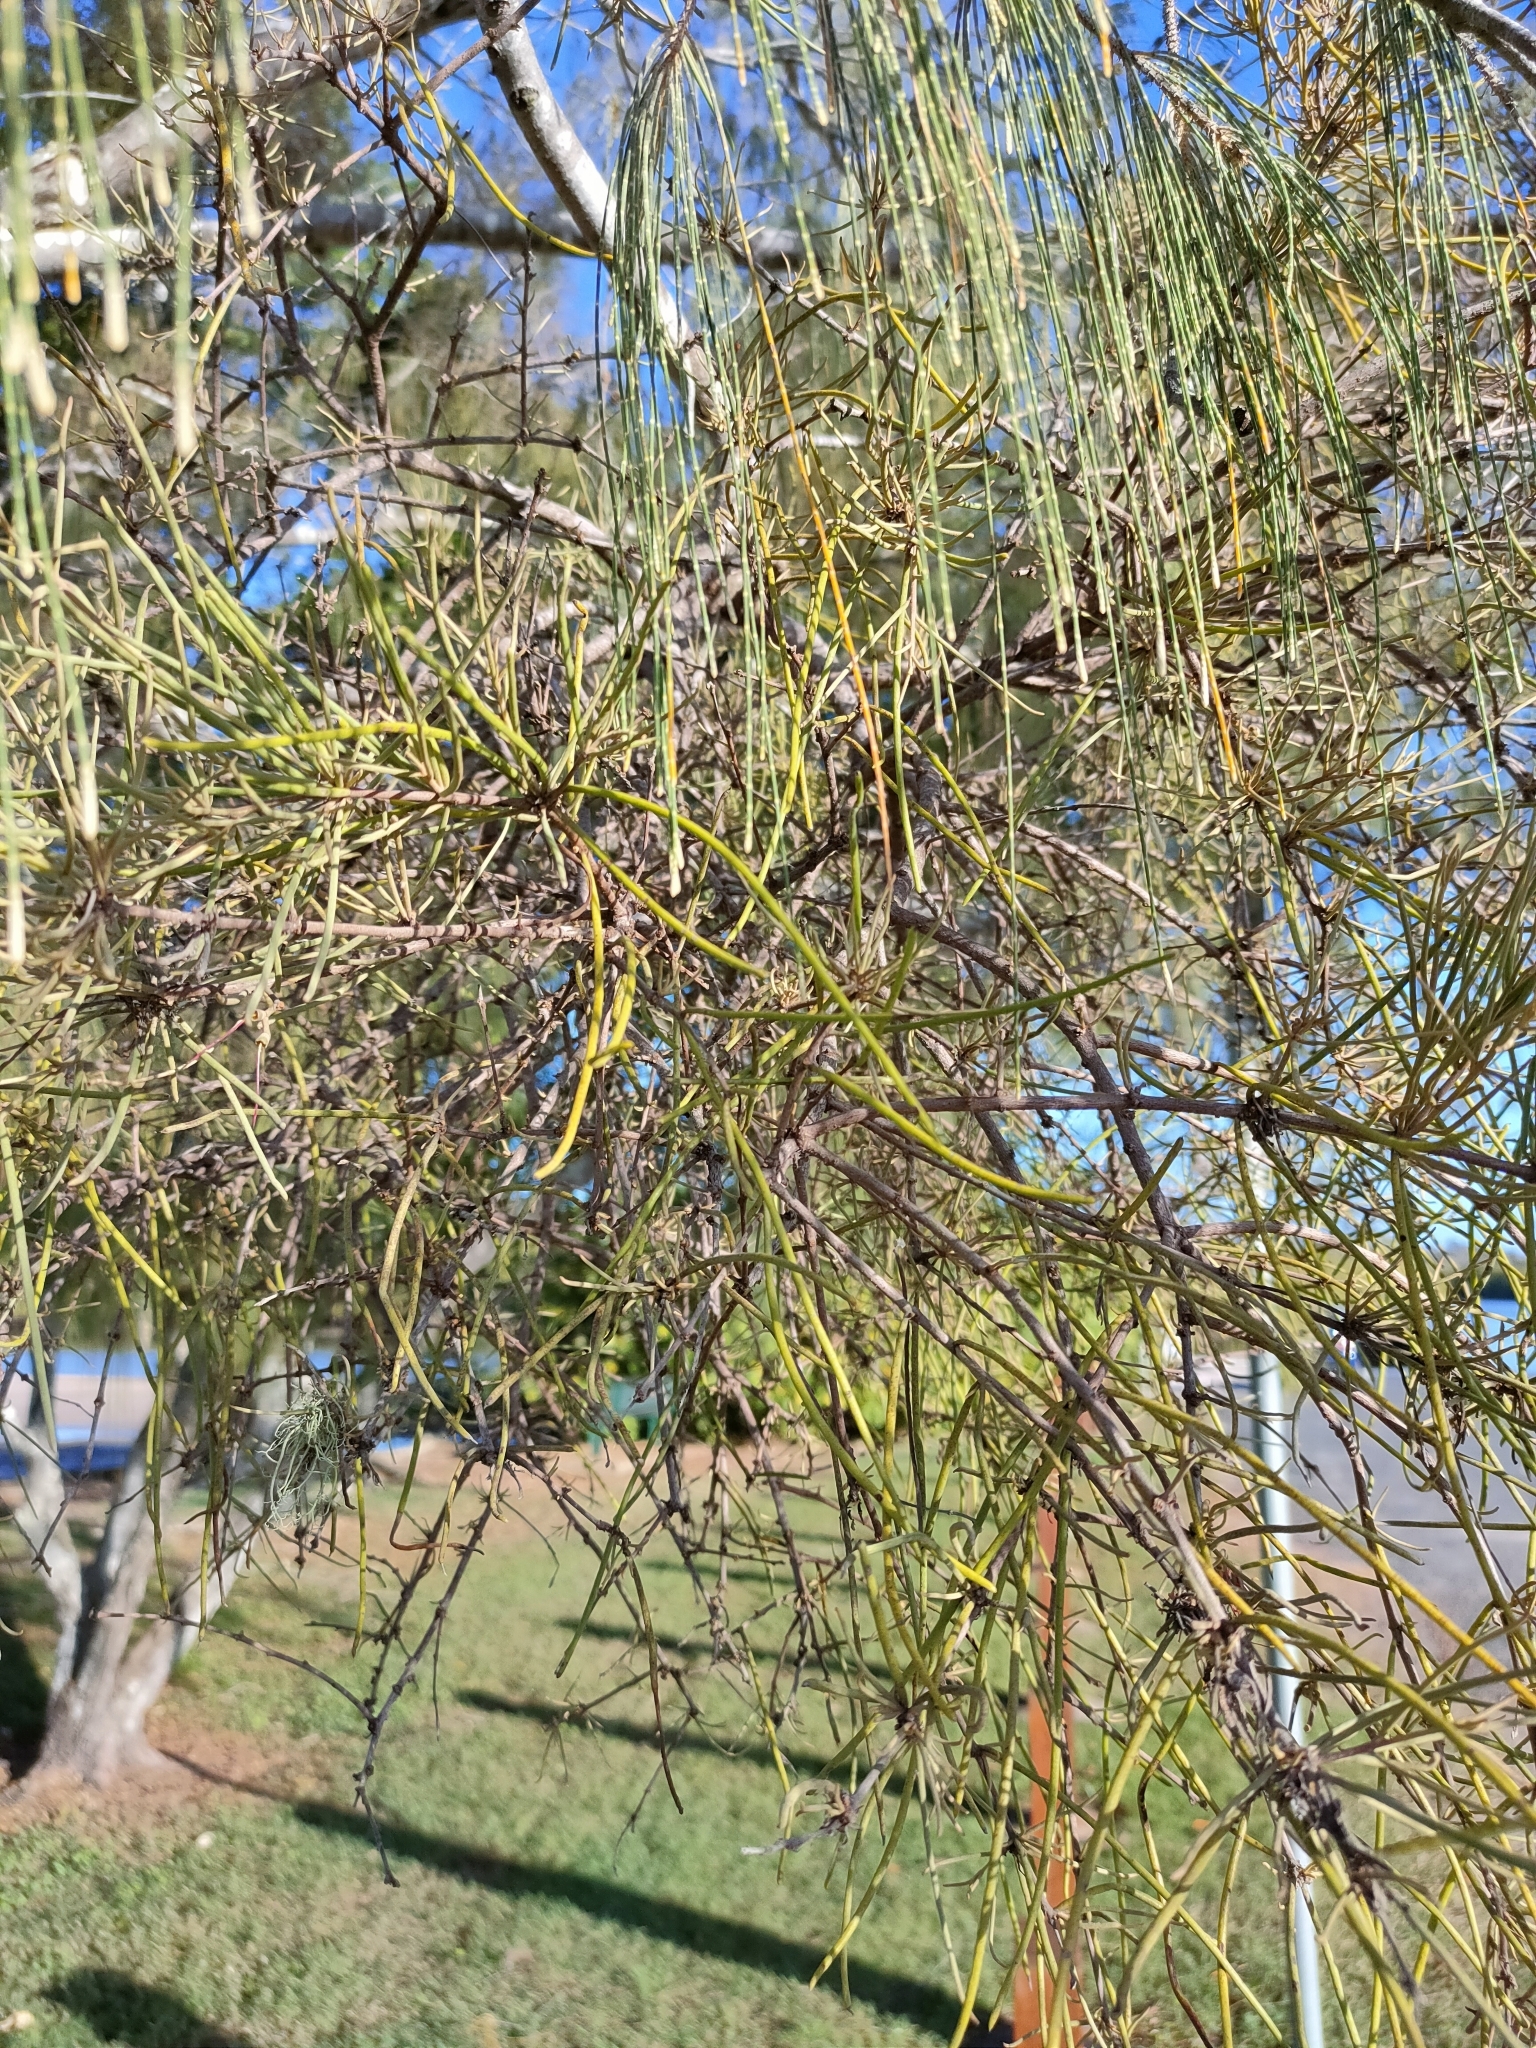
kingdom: Plantae
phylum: Tracheophyta
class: Magnoliopsida
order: Santalales
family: Loranthaceae
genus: Amyema
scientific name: Amyema cambagei
